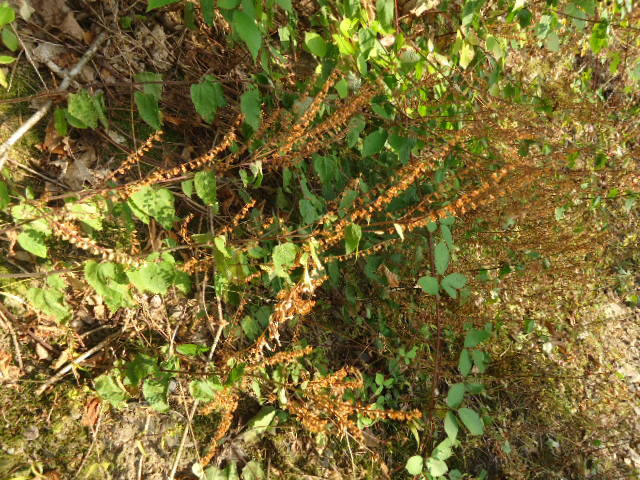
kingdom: Plantae
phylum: Tracheophyta
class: Magnoliopsida
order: Lamiales
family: Lamiaceae
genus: Teucrium
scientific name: Teucrium scorodonia
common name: Woodland germander
